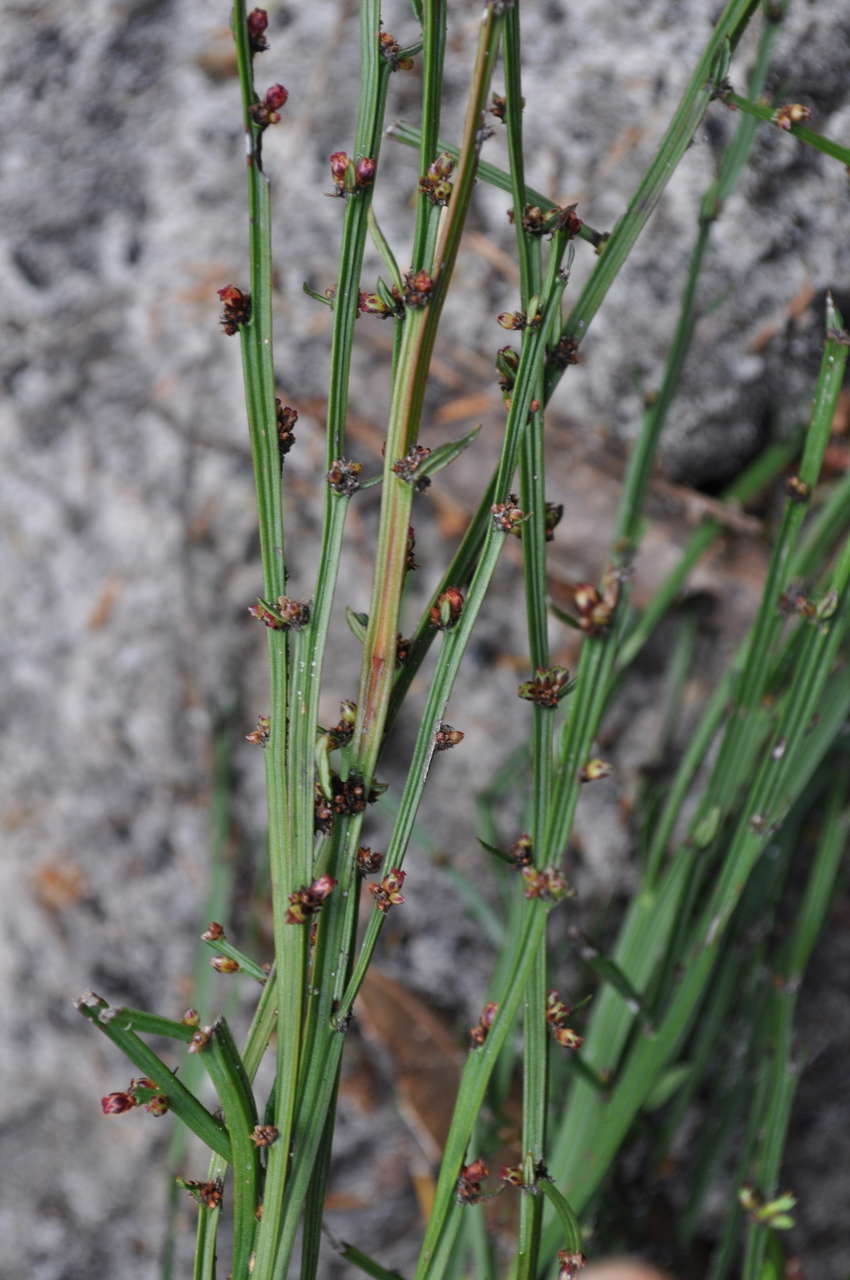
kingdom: Plantae
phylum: Tracheophyta
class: Magnoliopsida
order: Malpighiales
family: Euphorbiaceae
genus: Amperea
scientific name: Amperea xiphoclada
